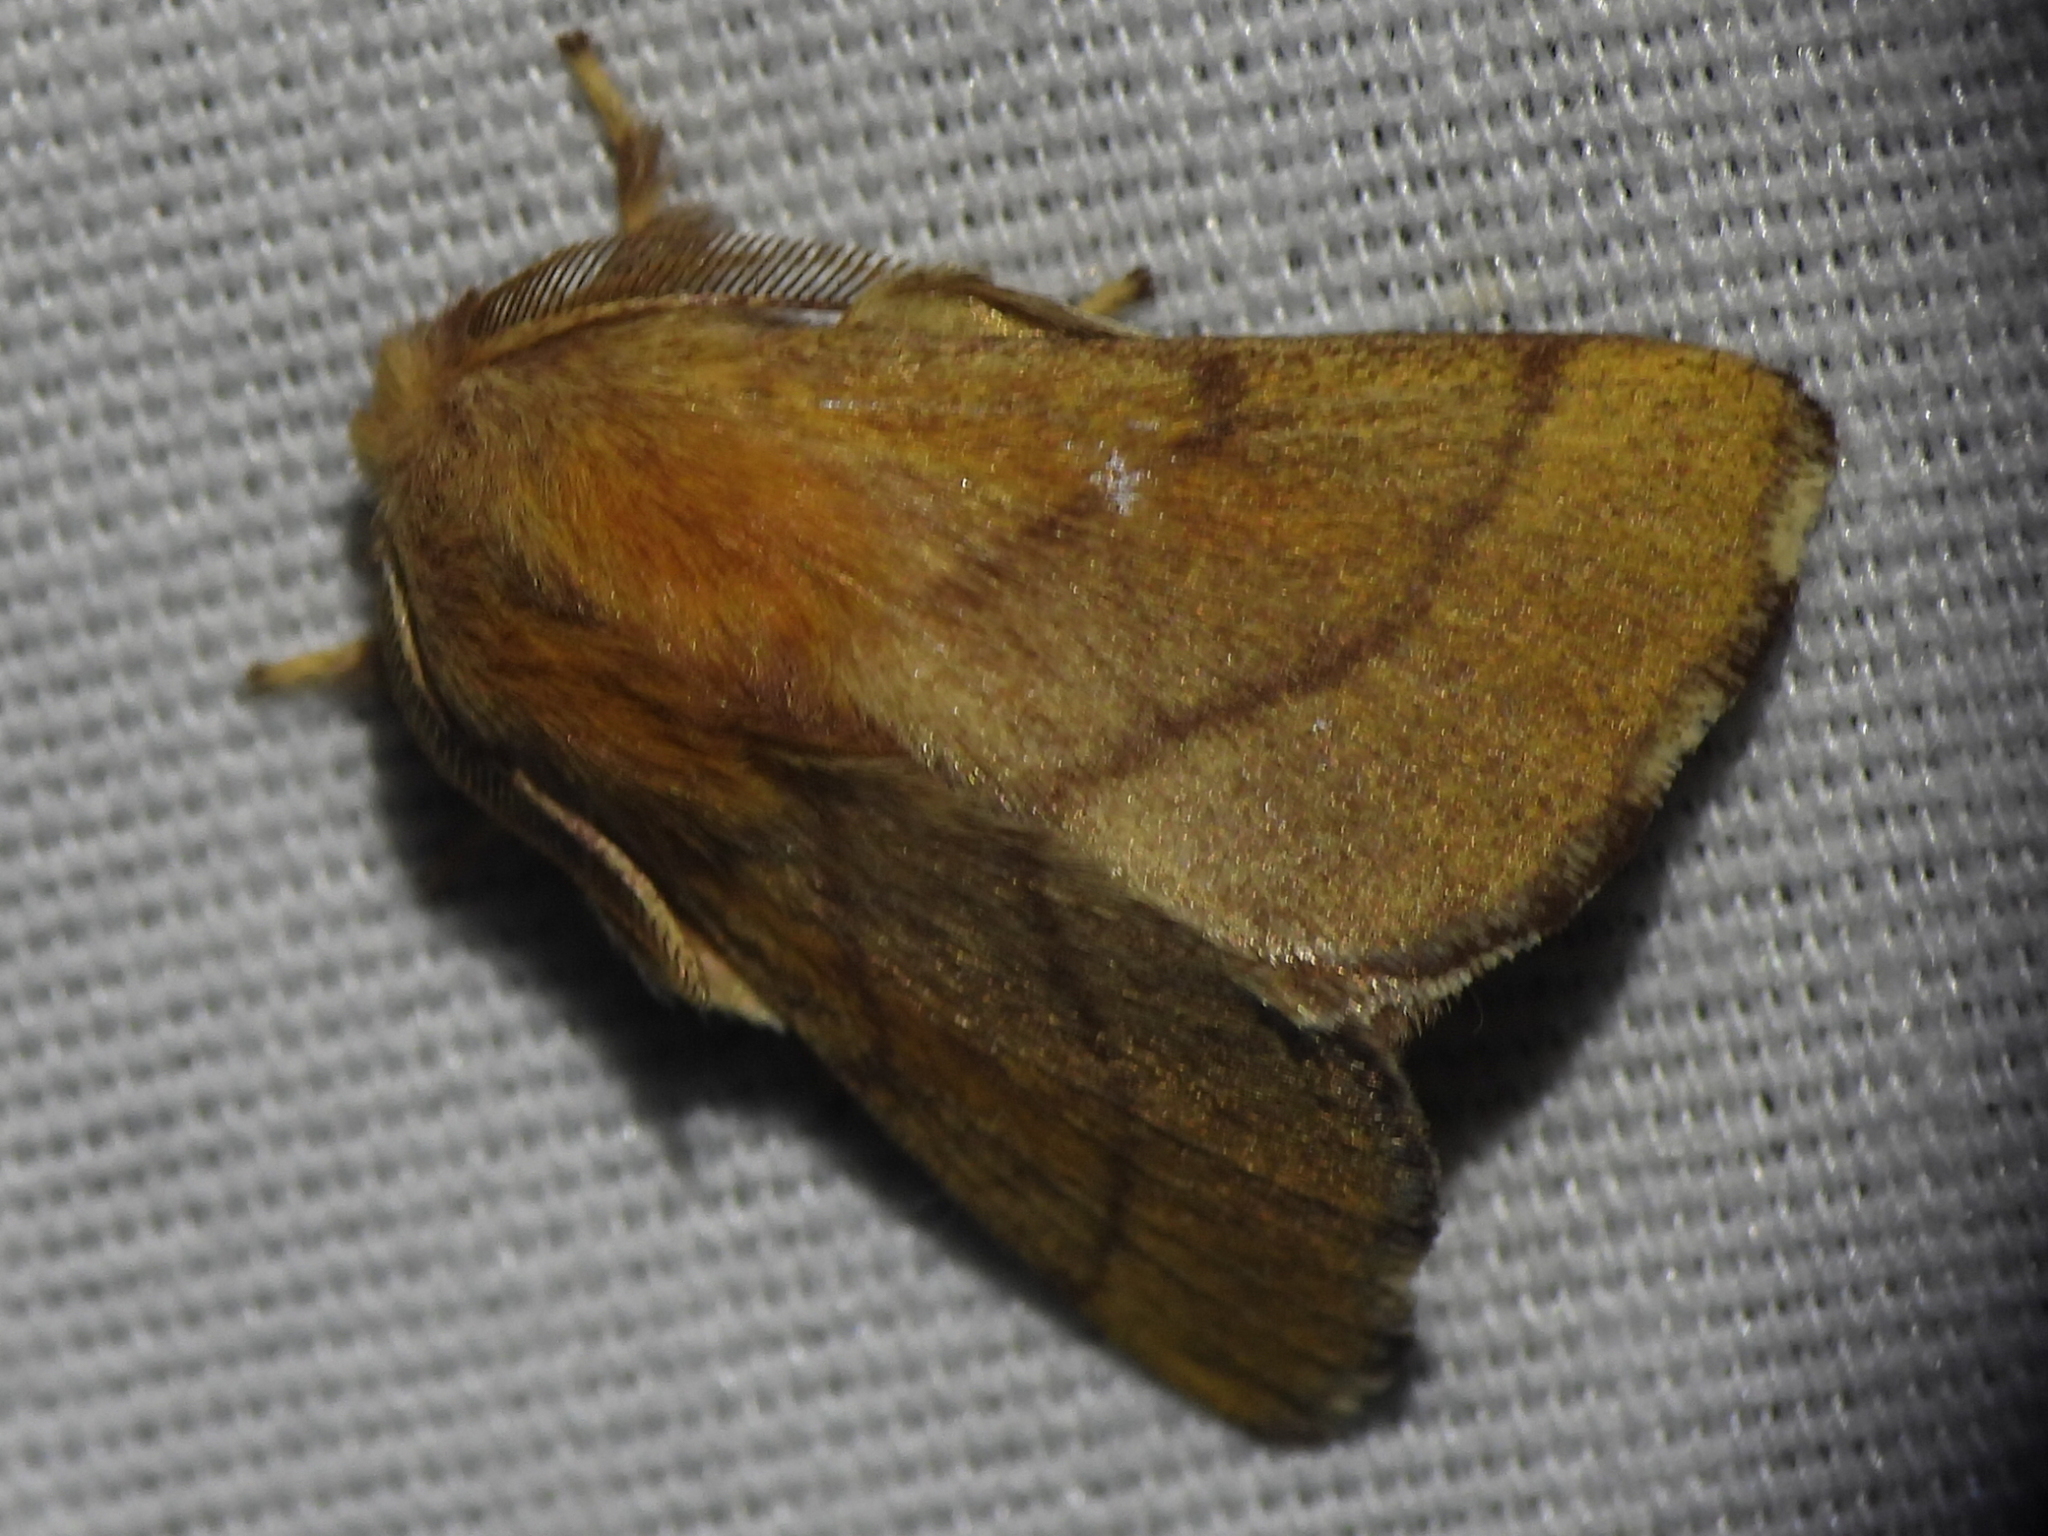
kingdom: Animalia
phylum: Arthropoda
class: Insecta
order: Lepidoptera
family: Lasiocampidae
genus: Malacosoma
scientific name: Malacosoma disstria
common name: Forest tent caterpillar
